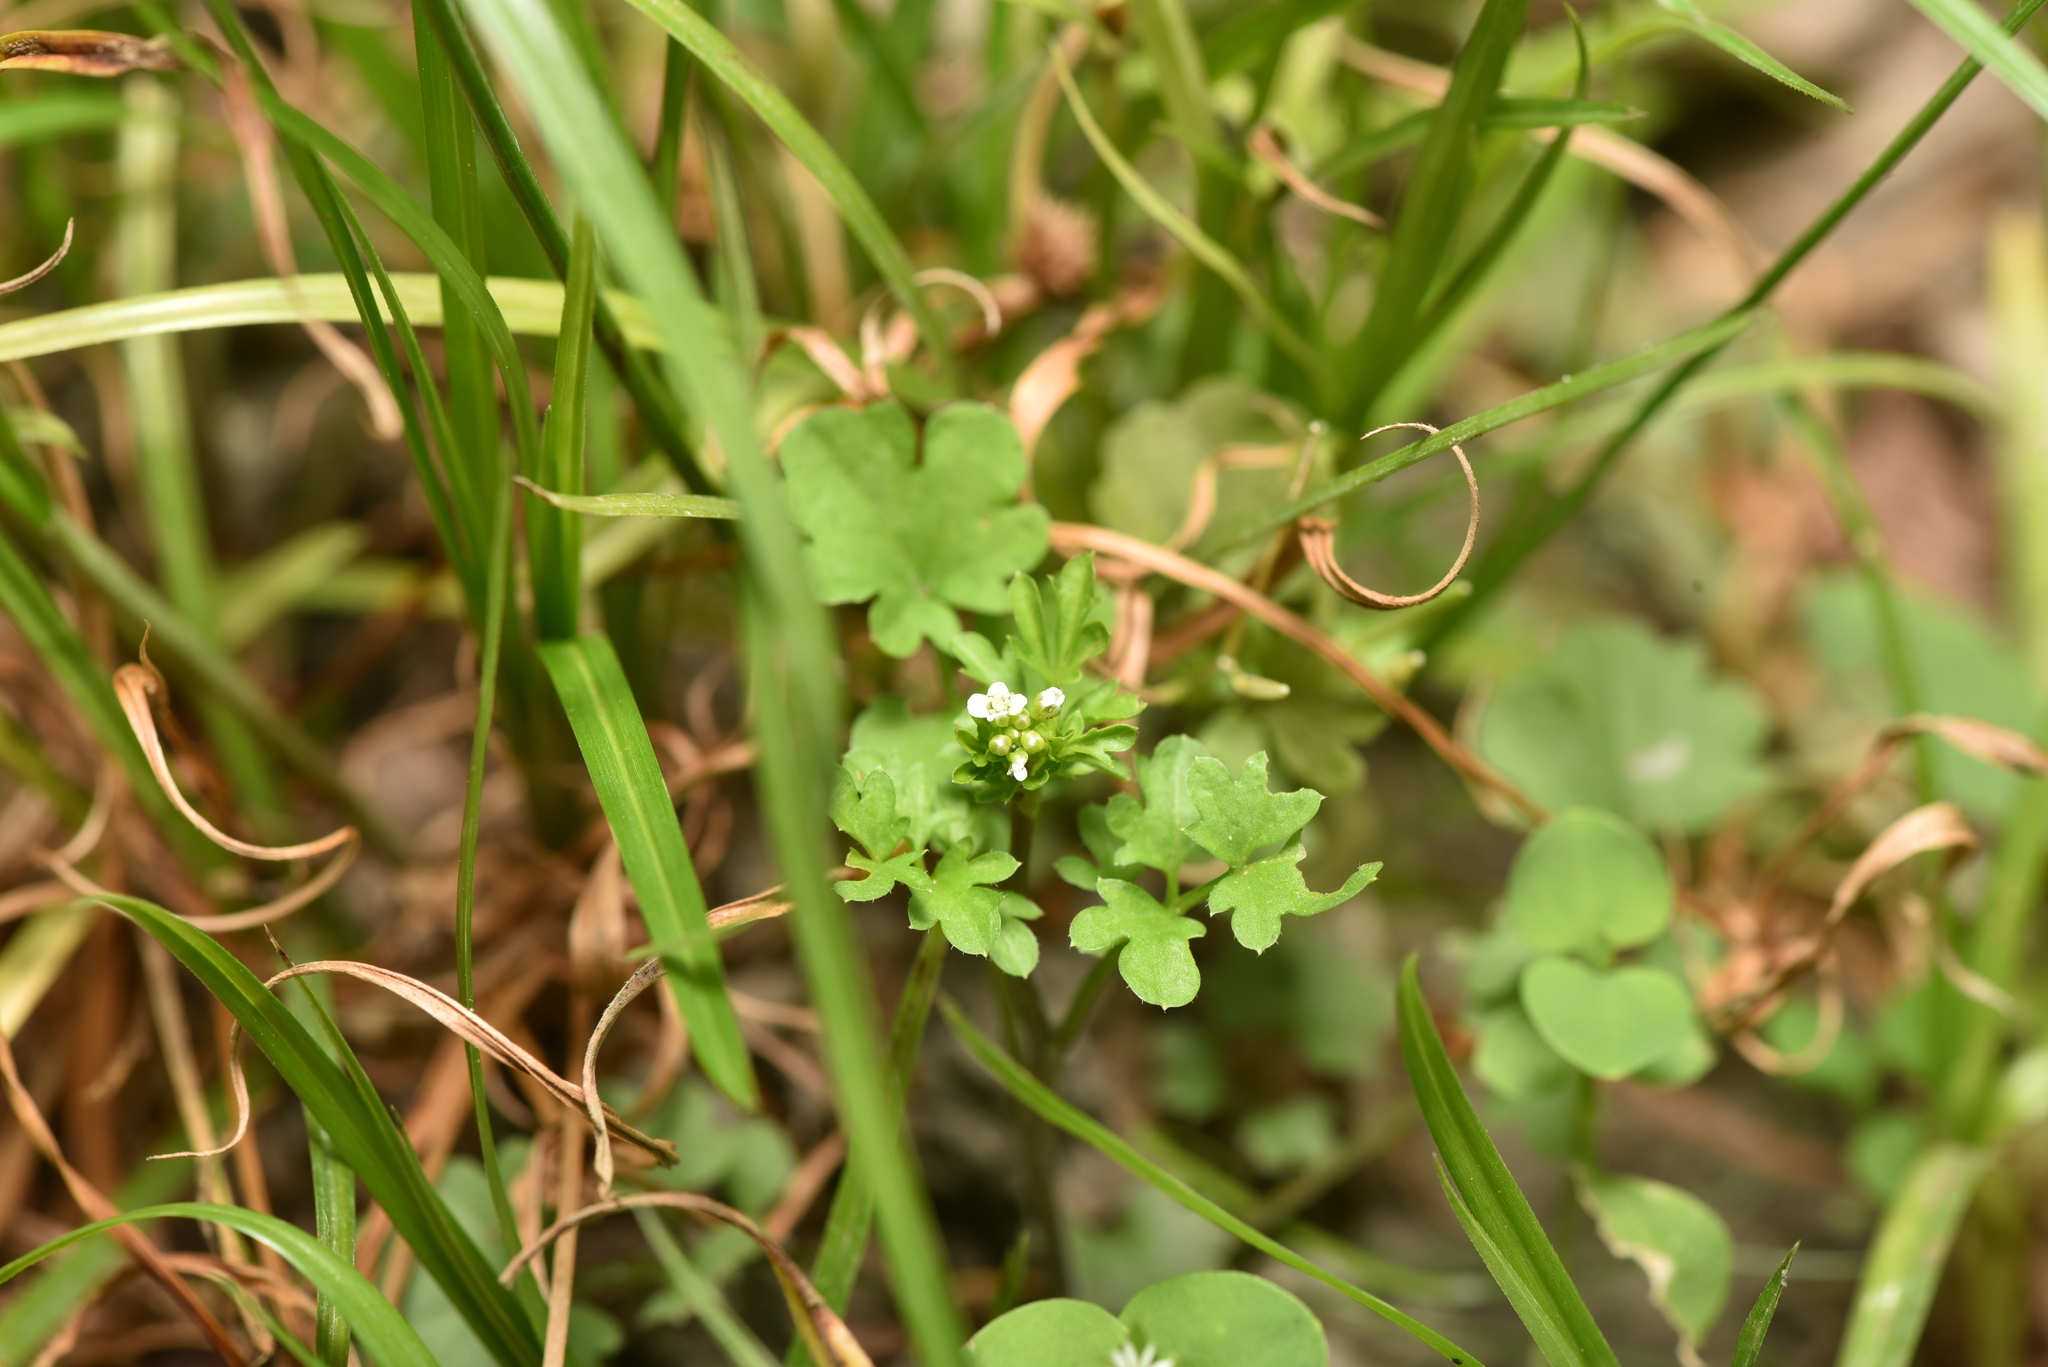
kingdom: Plantae
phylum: Tracheophyta
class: Magnoliopsida
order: Brassicales
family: Brassicaceae
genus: Cardamine
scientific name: Cardamine occulta
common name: Asian wavy bittercress
